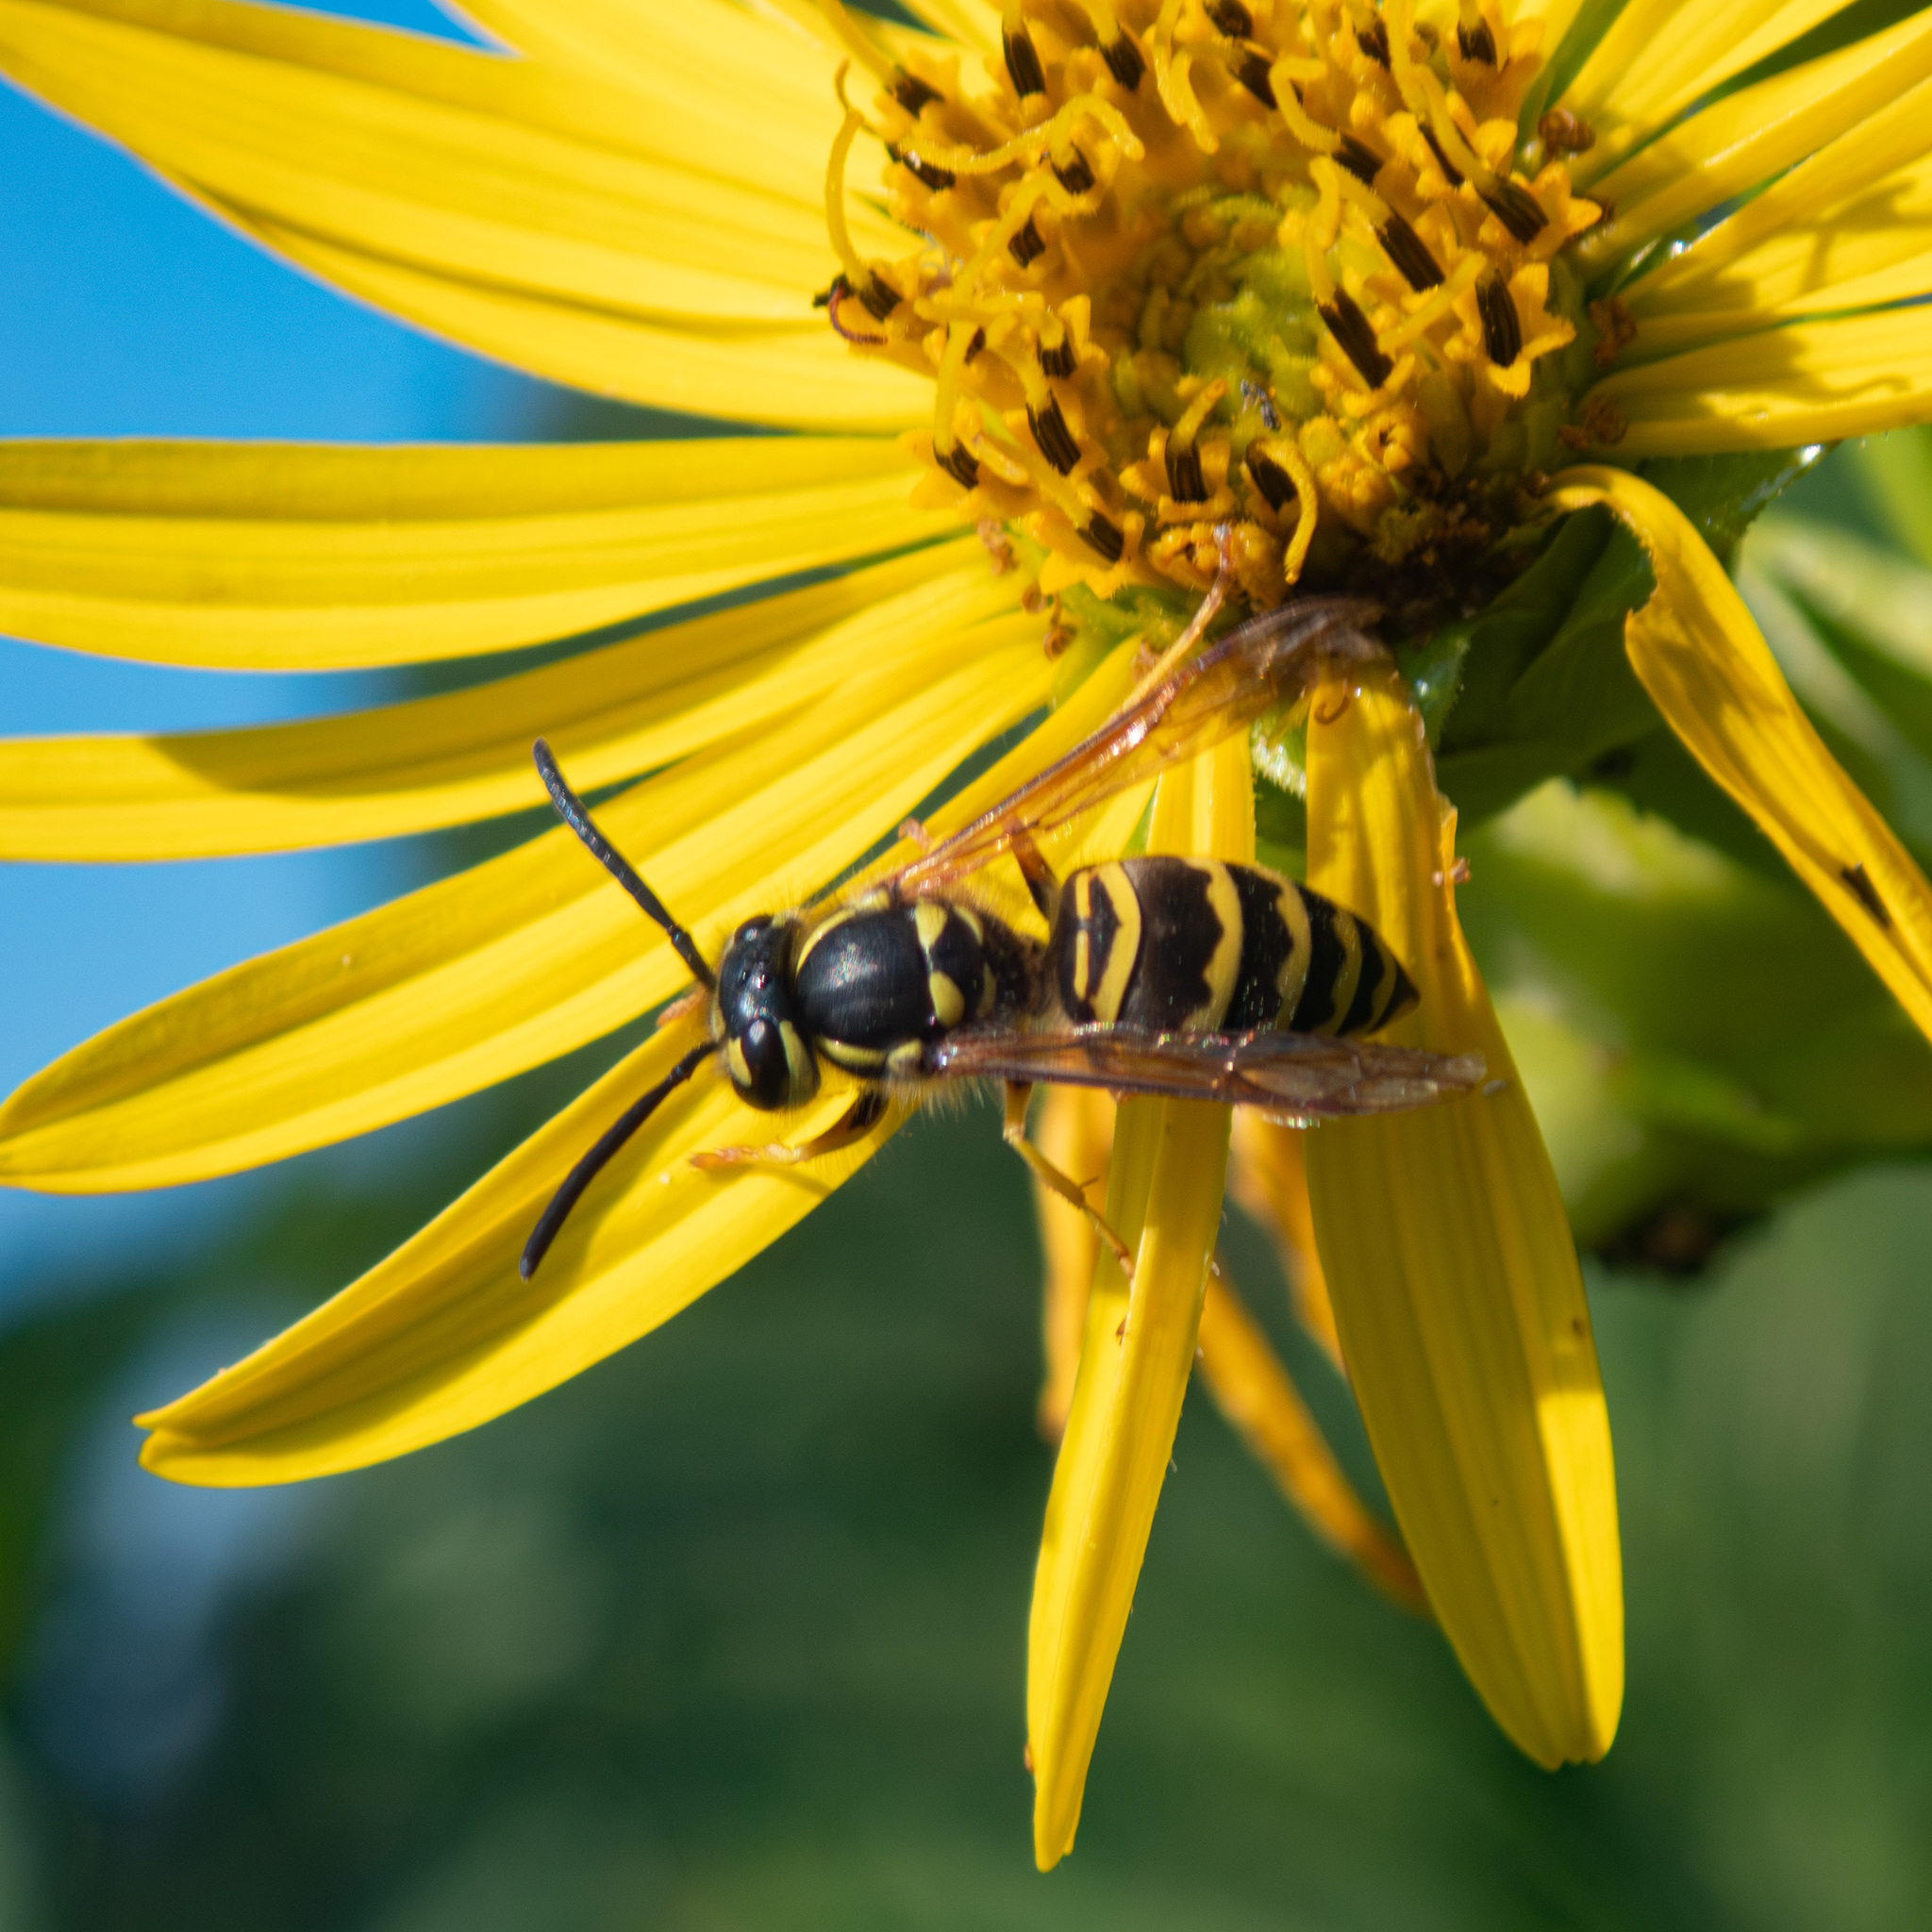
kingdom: Animalia
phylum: Arthropoda
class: Insecta
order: Hymenoptera
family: Vespidae
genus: Vespula
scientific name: Vespula maculifrons
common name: Eastern yellowjacket
